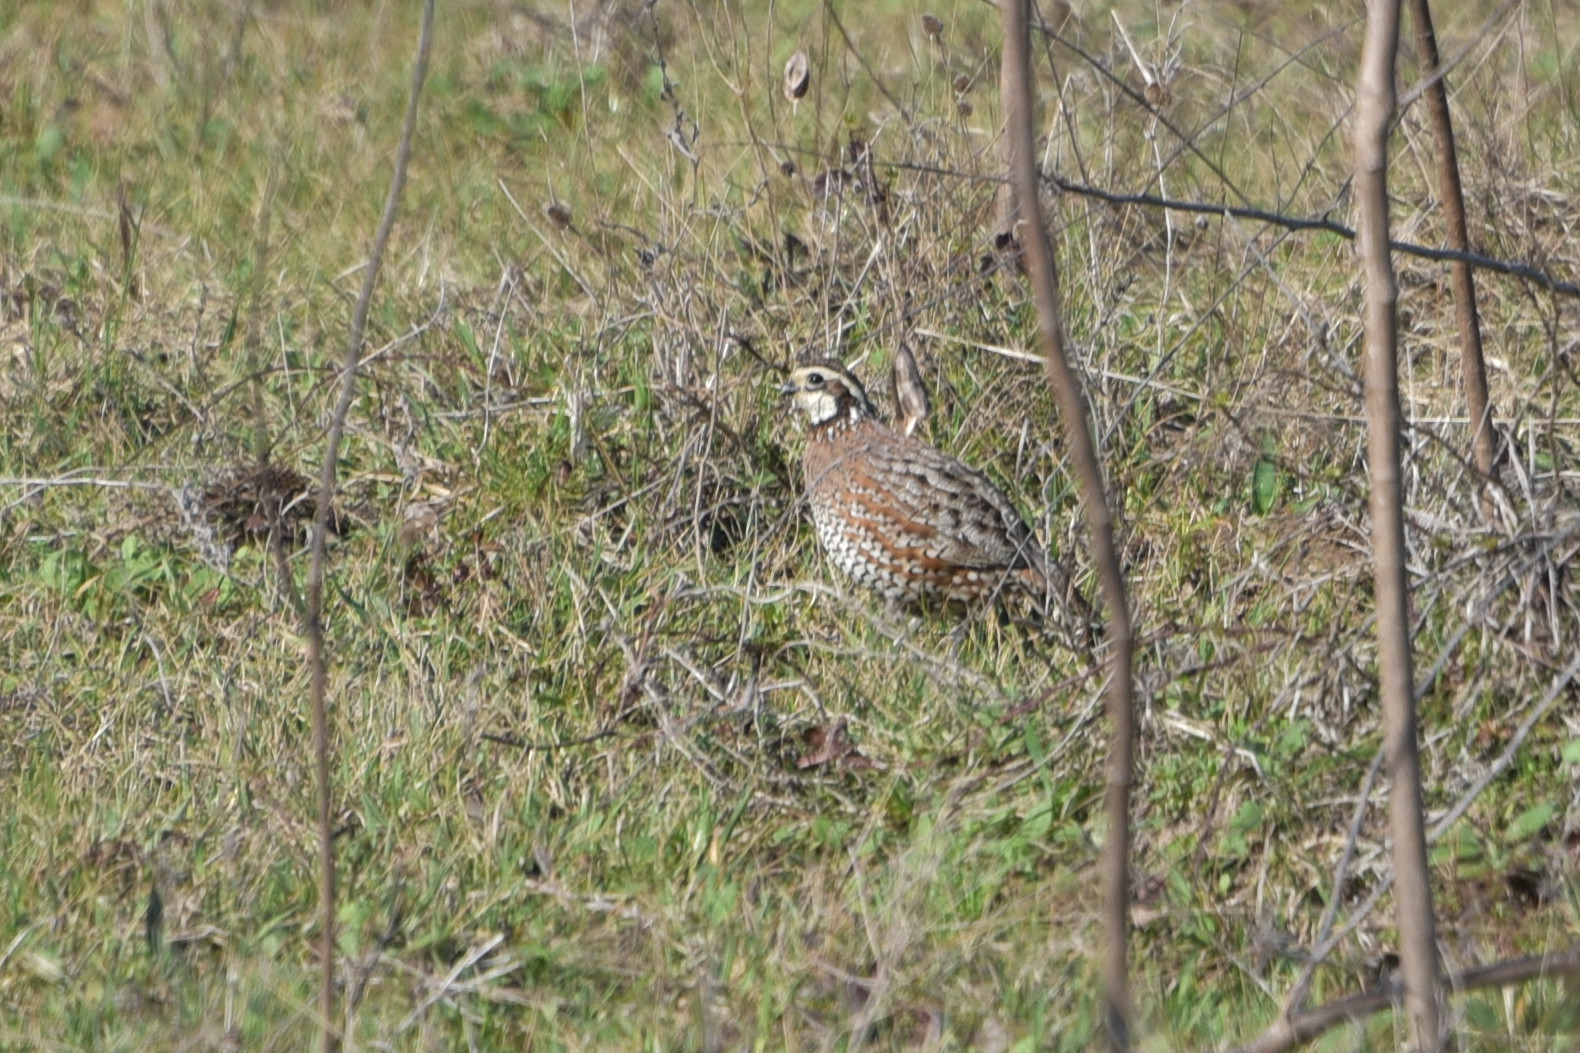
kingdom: Animalia
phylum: Chordata
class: Aves
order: Galliformes
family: Odontophoridae
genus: Colinus
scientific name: Colinus virginianus
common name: Northern bobwhite
